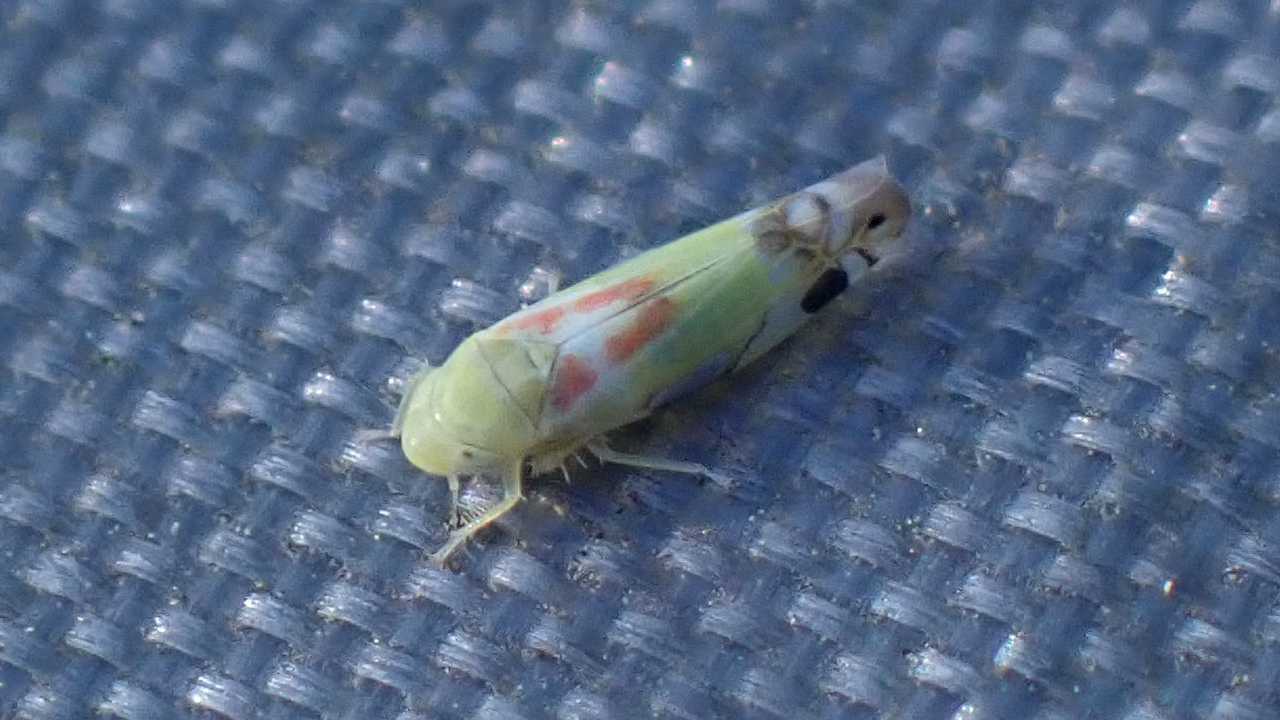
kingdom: Animalia
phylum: Arthropoda
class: Insecta
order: Hemiptera
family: Cicadellidae
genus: Zyginella
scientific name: Zyginella pulchra
